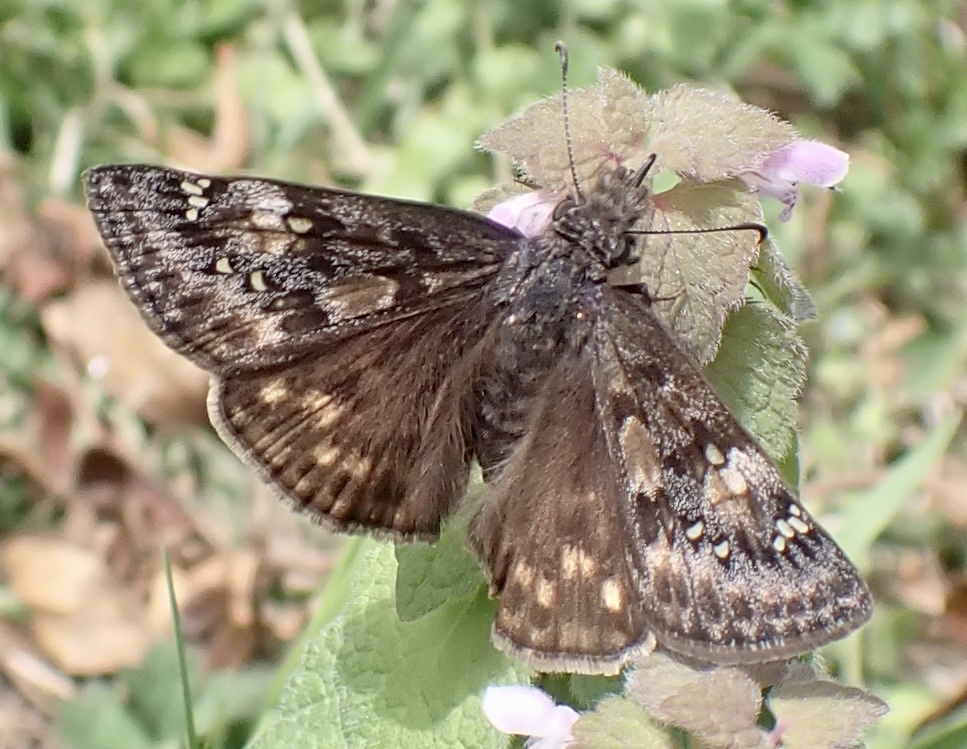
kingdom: Animalia
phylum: Arthropoda
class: Insecta
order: Lepidoptera
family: Hesperiidae
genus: Erynnis
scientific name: Erynnis juvenalis
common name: Juvenal's duskywing
